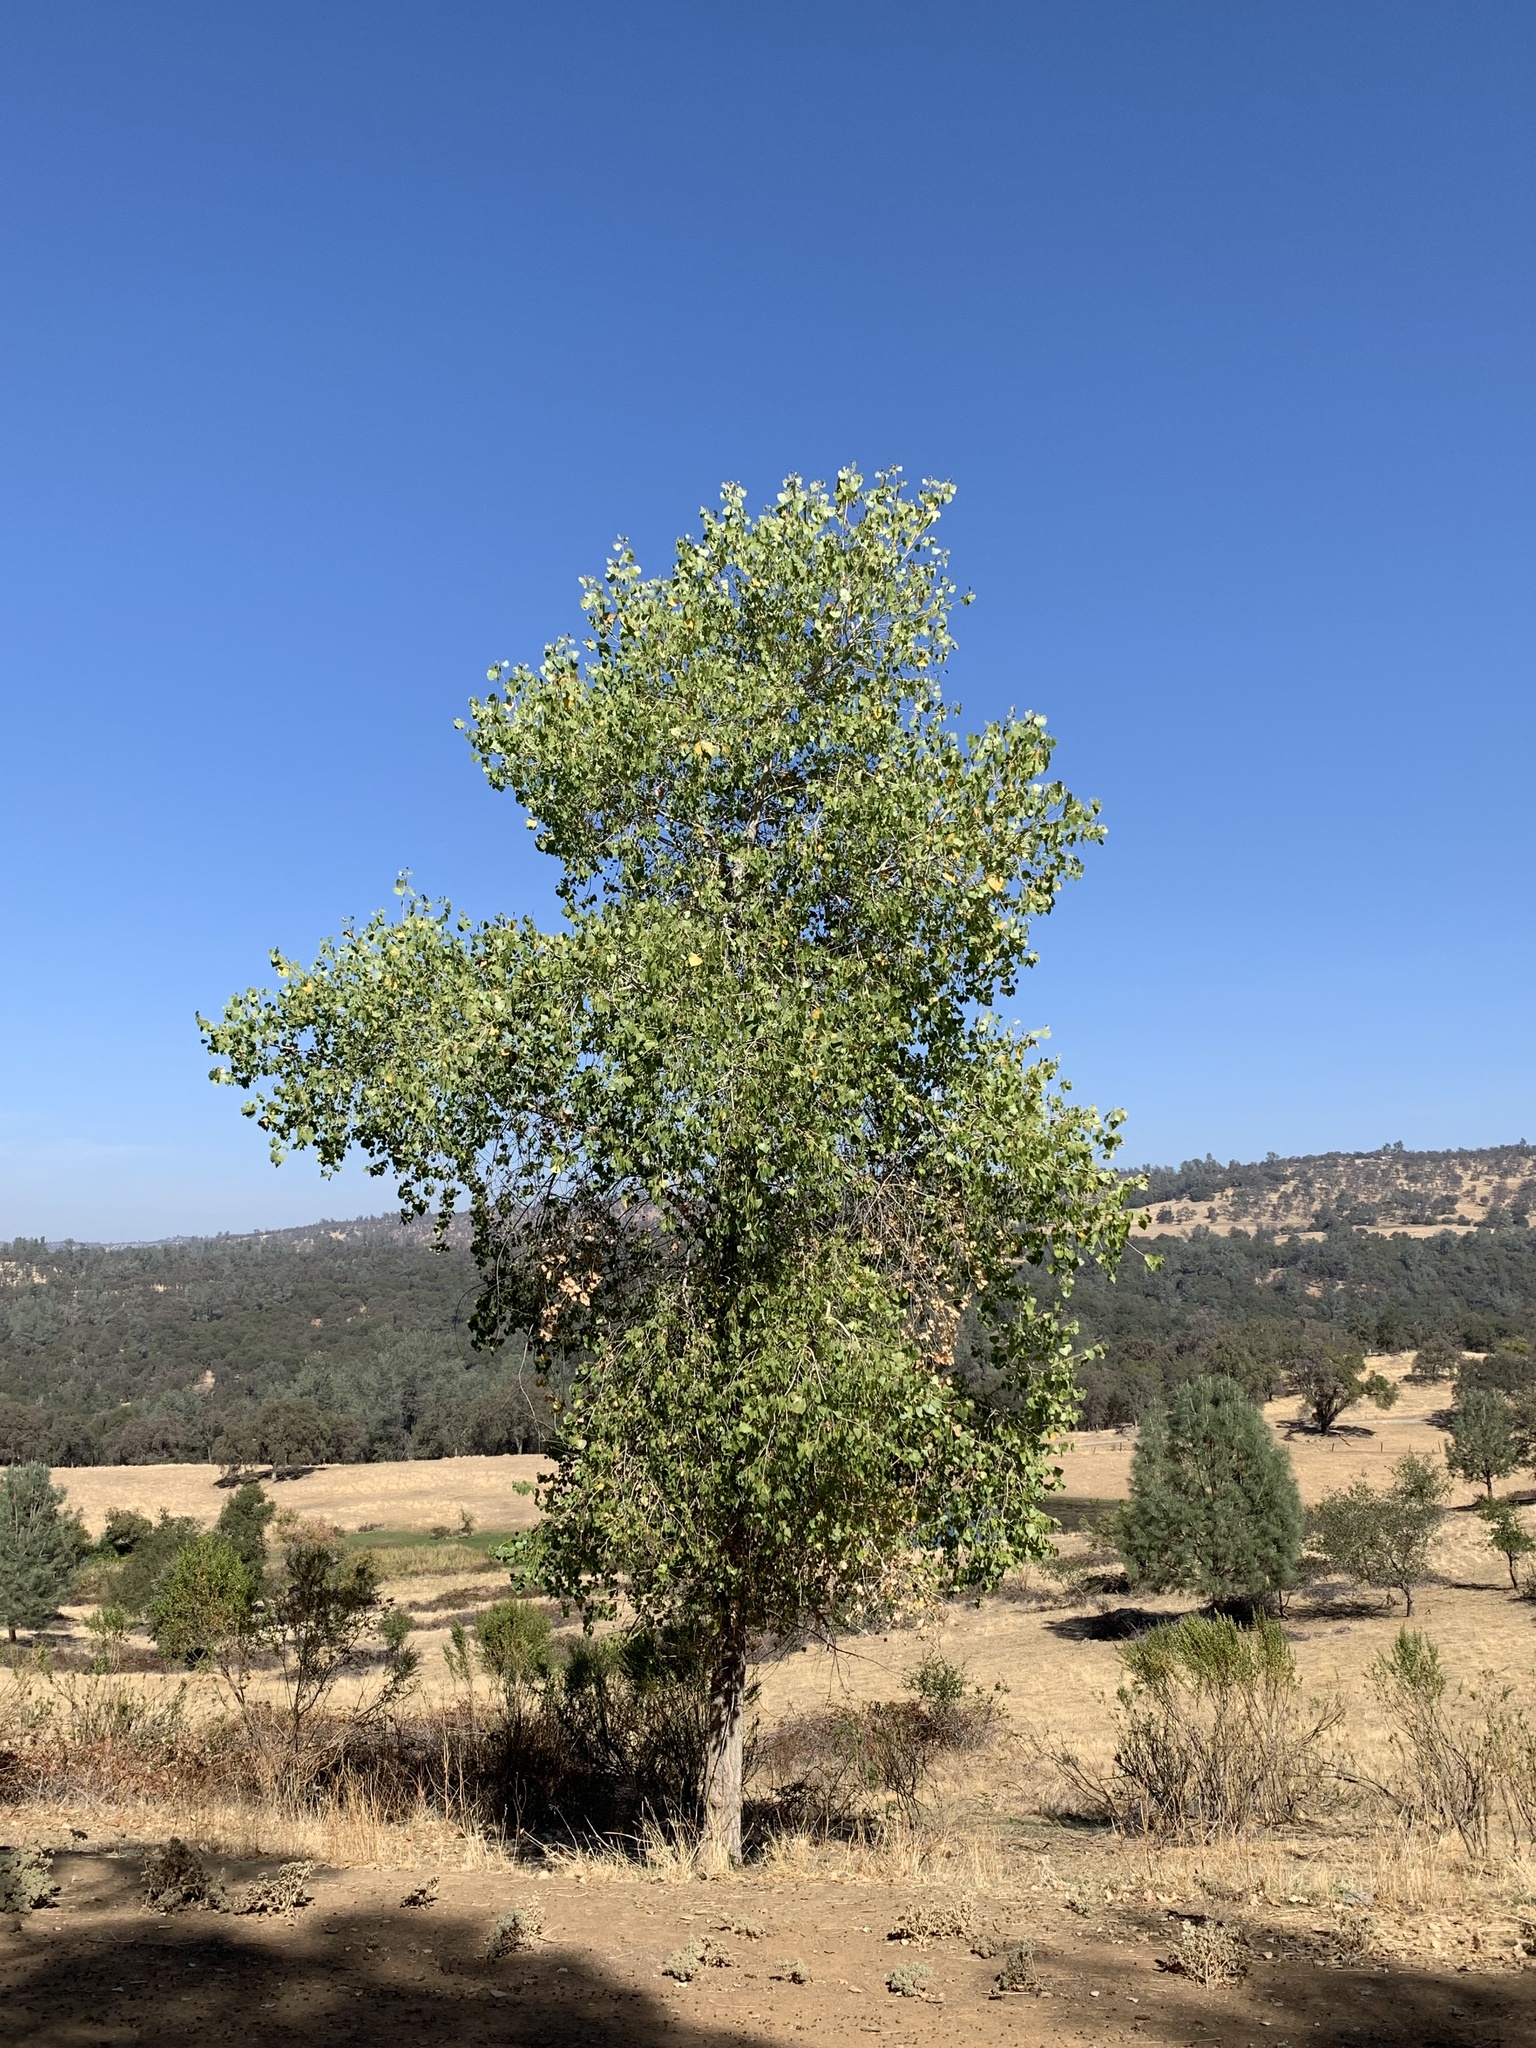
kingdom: Plantae
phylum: Tracheophyta
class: Magnoliopsida
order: Malpighiales
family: Salicaceae
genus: Populus
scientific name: Populus fremontii
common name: Fremont's cottonwood
